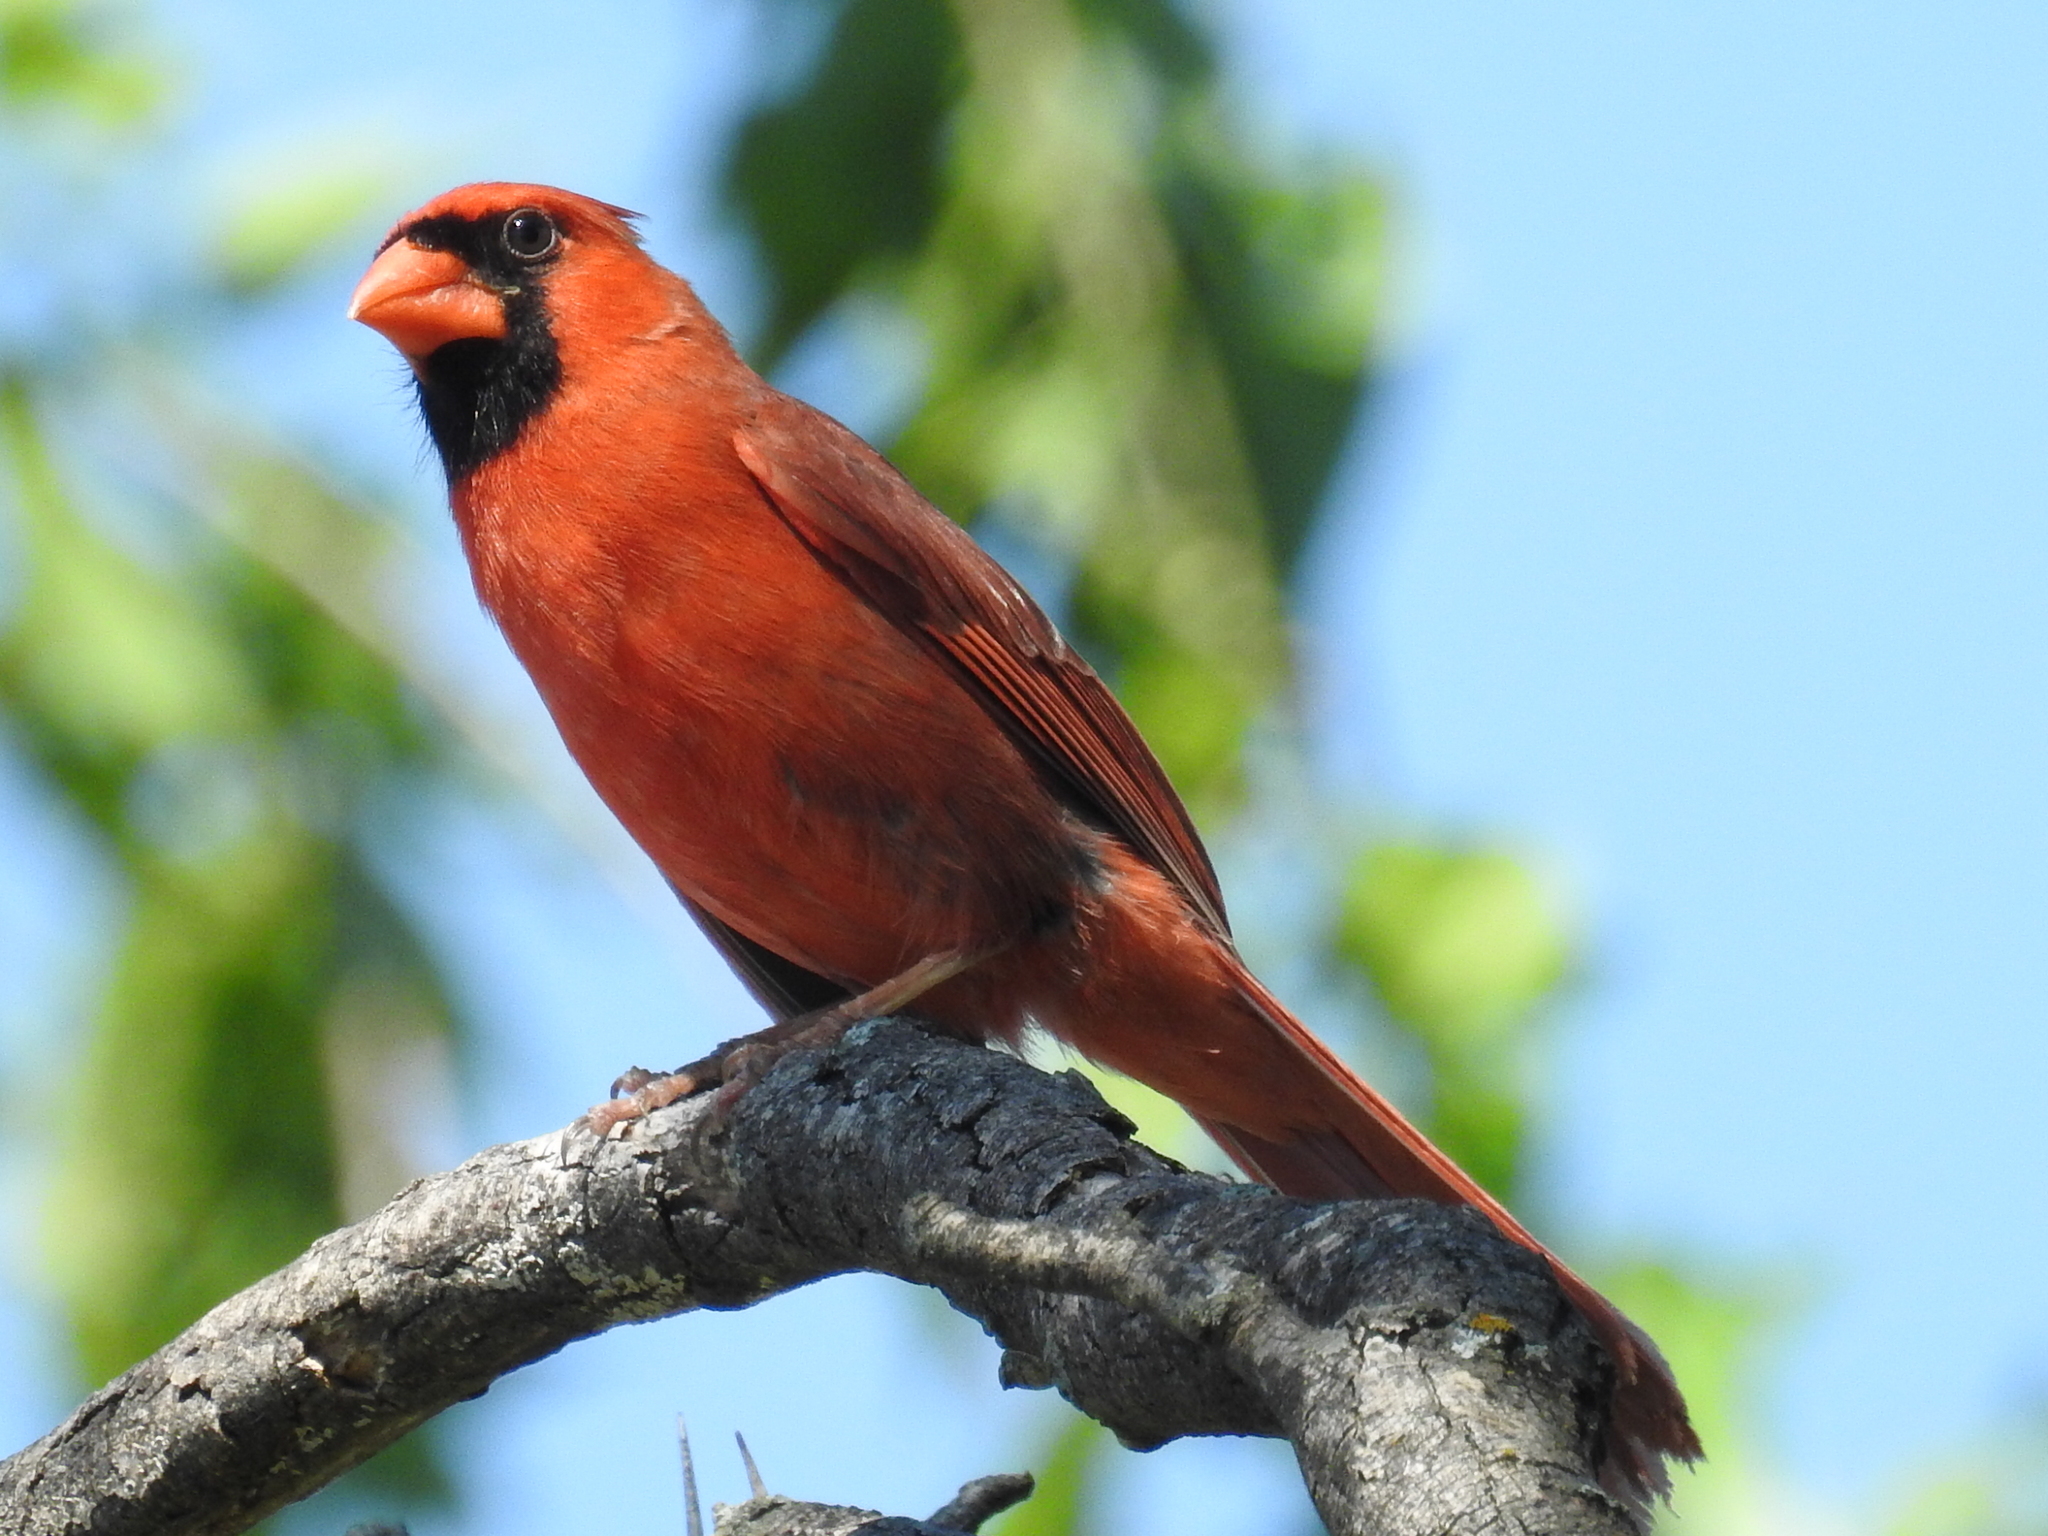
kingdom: Animalia
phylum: Chordata
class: Aves
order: Passeriformes
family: Cardinalidae
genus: Cardinalis
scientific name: Cardinalis cardinalis
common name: Northern cardinal
